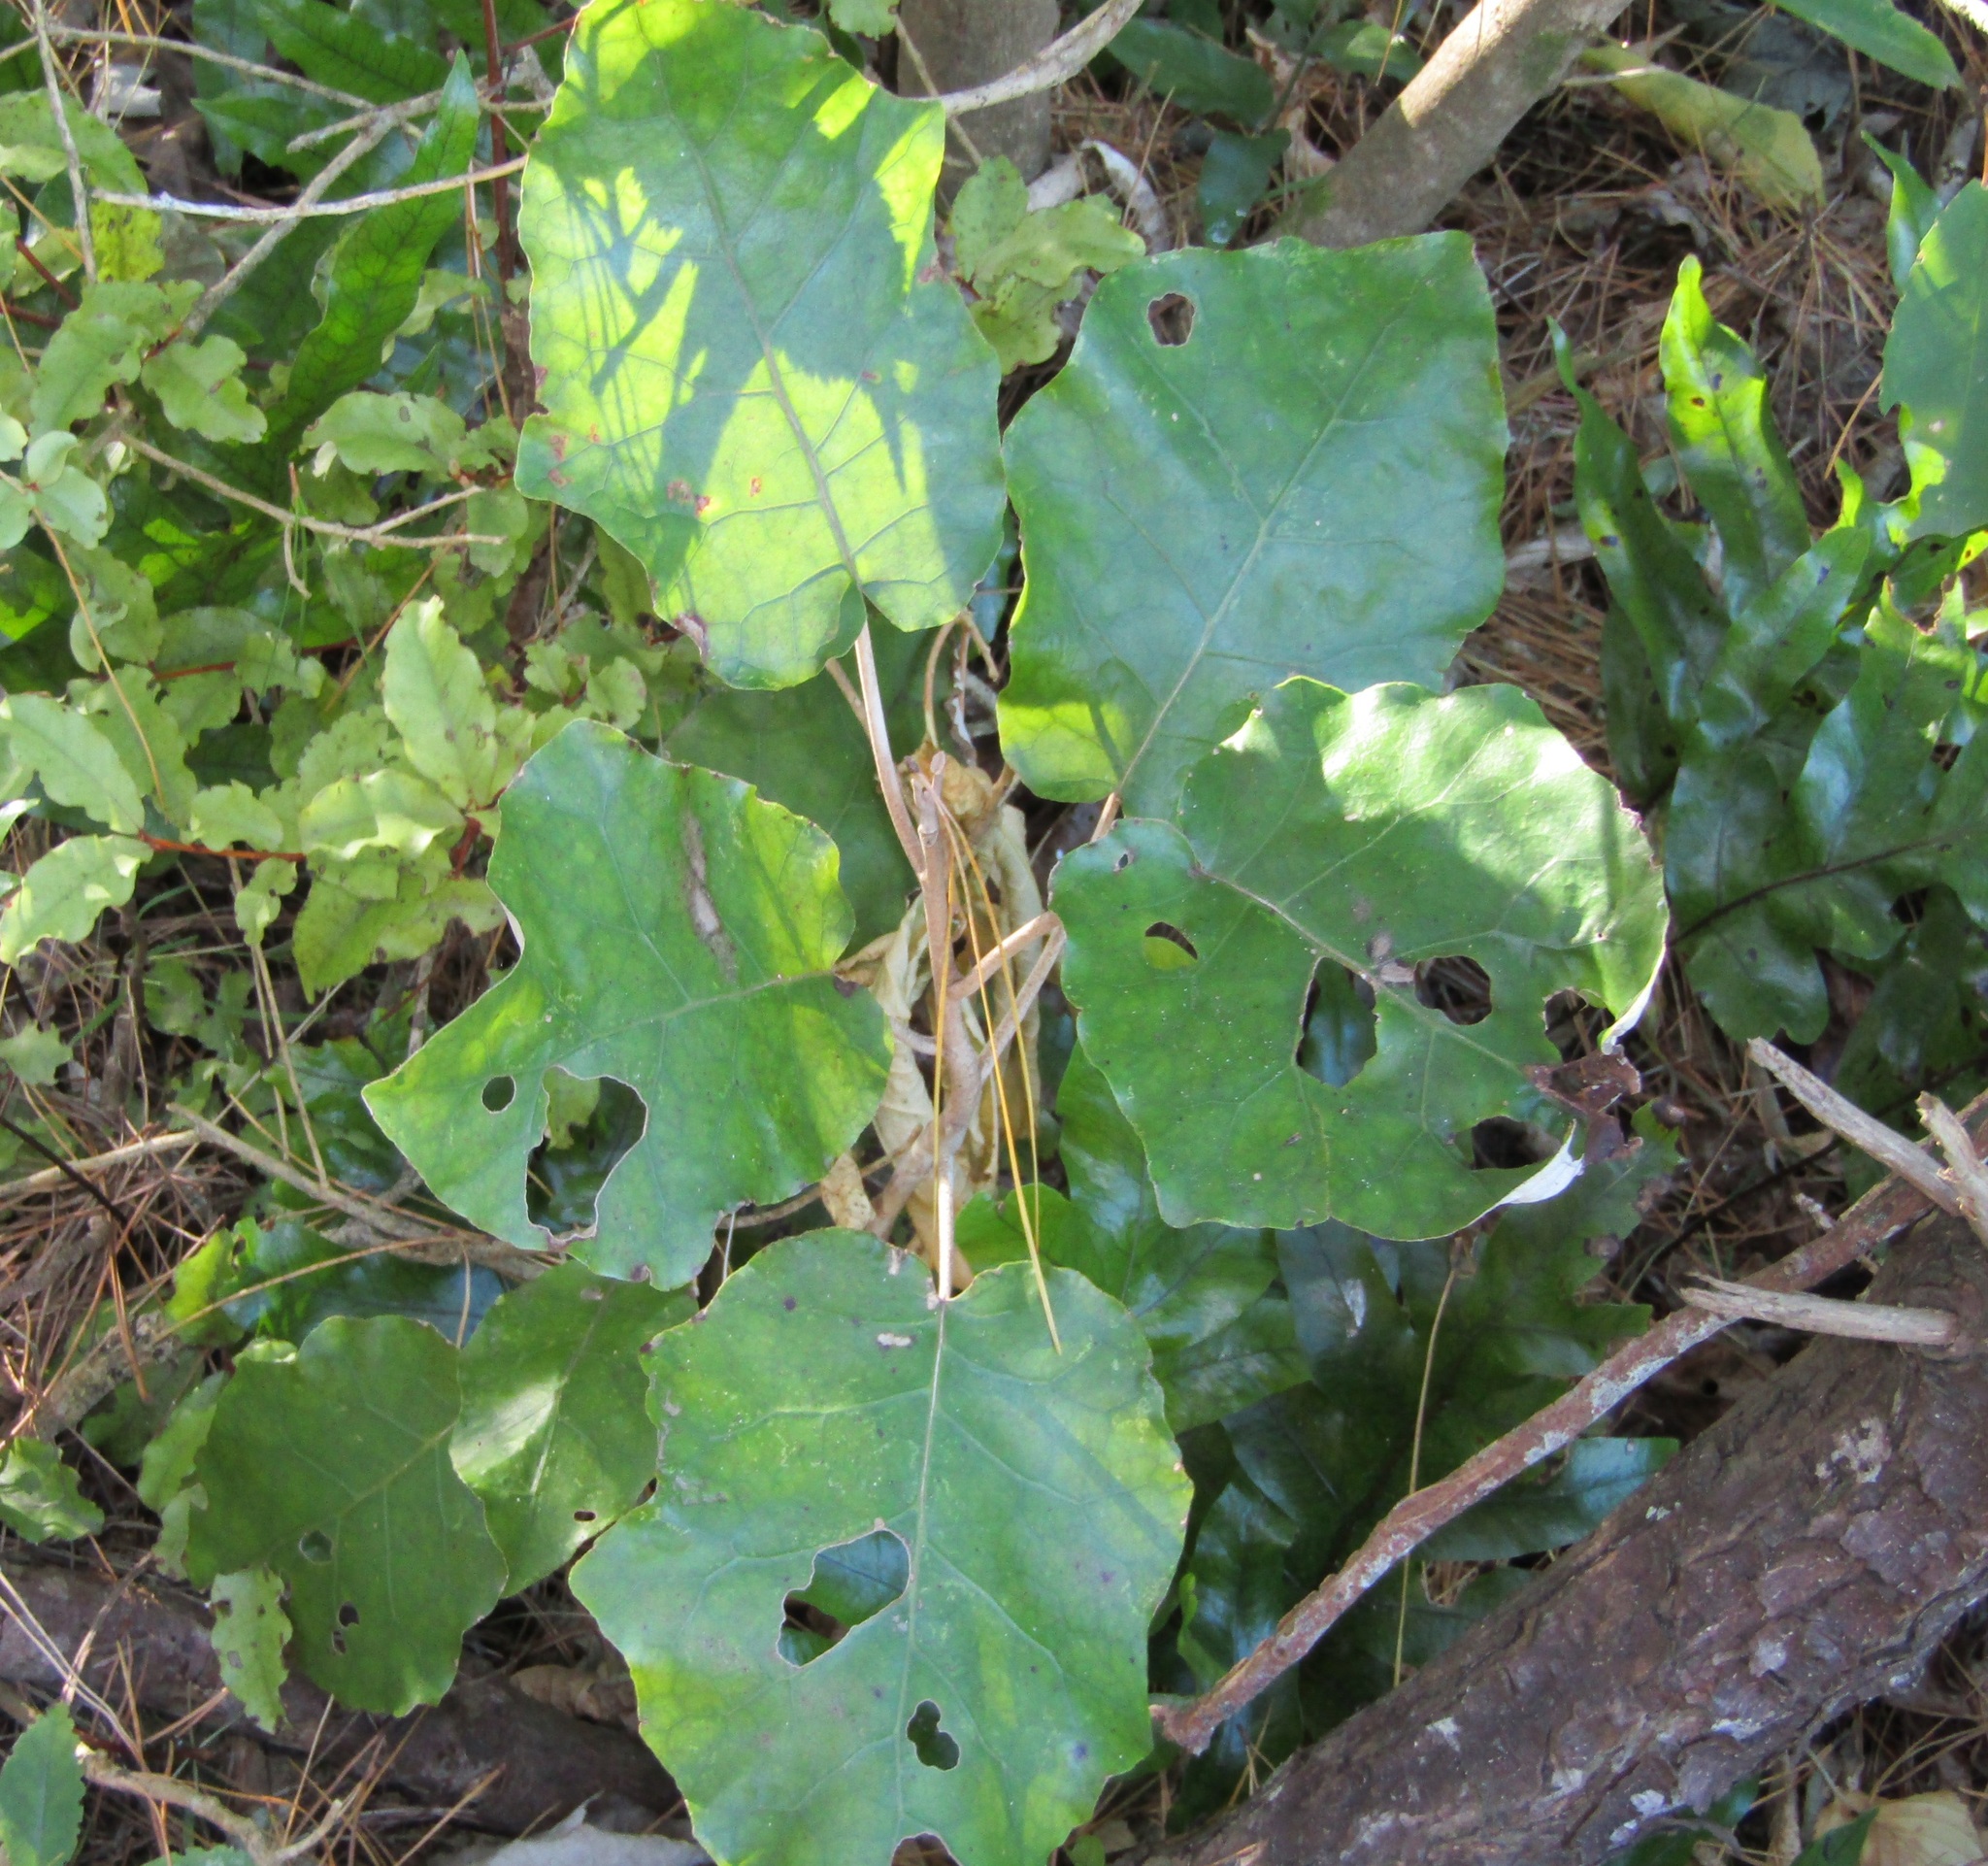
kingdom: Plantae
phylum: Tracheophyta
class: Magnoliopsida
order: Asterales
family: Asteraceae
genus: Brachyglottis
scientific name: Brachyglottis repanda
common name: Hedge ragwort
